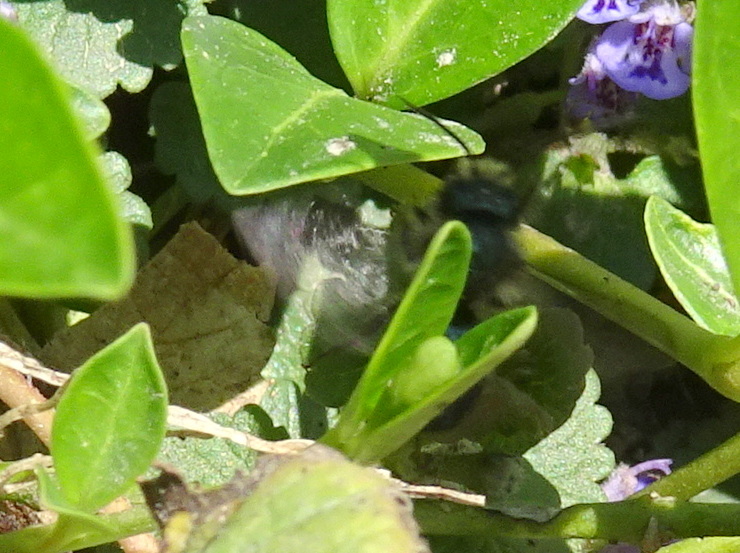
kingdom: Animalia
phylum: Arthropoda
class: Insecta
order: Hymenoptera
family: Megachilidae
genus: Osmia
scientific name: Osmia lignaria
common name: Blue orchard bee
